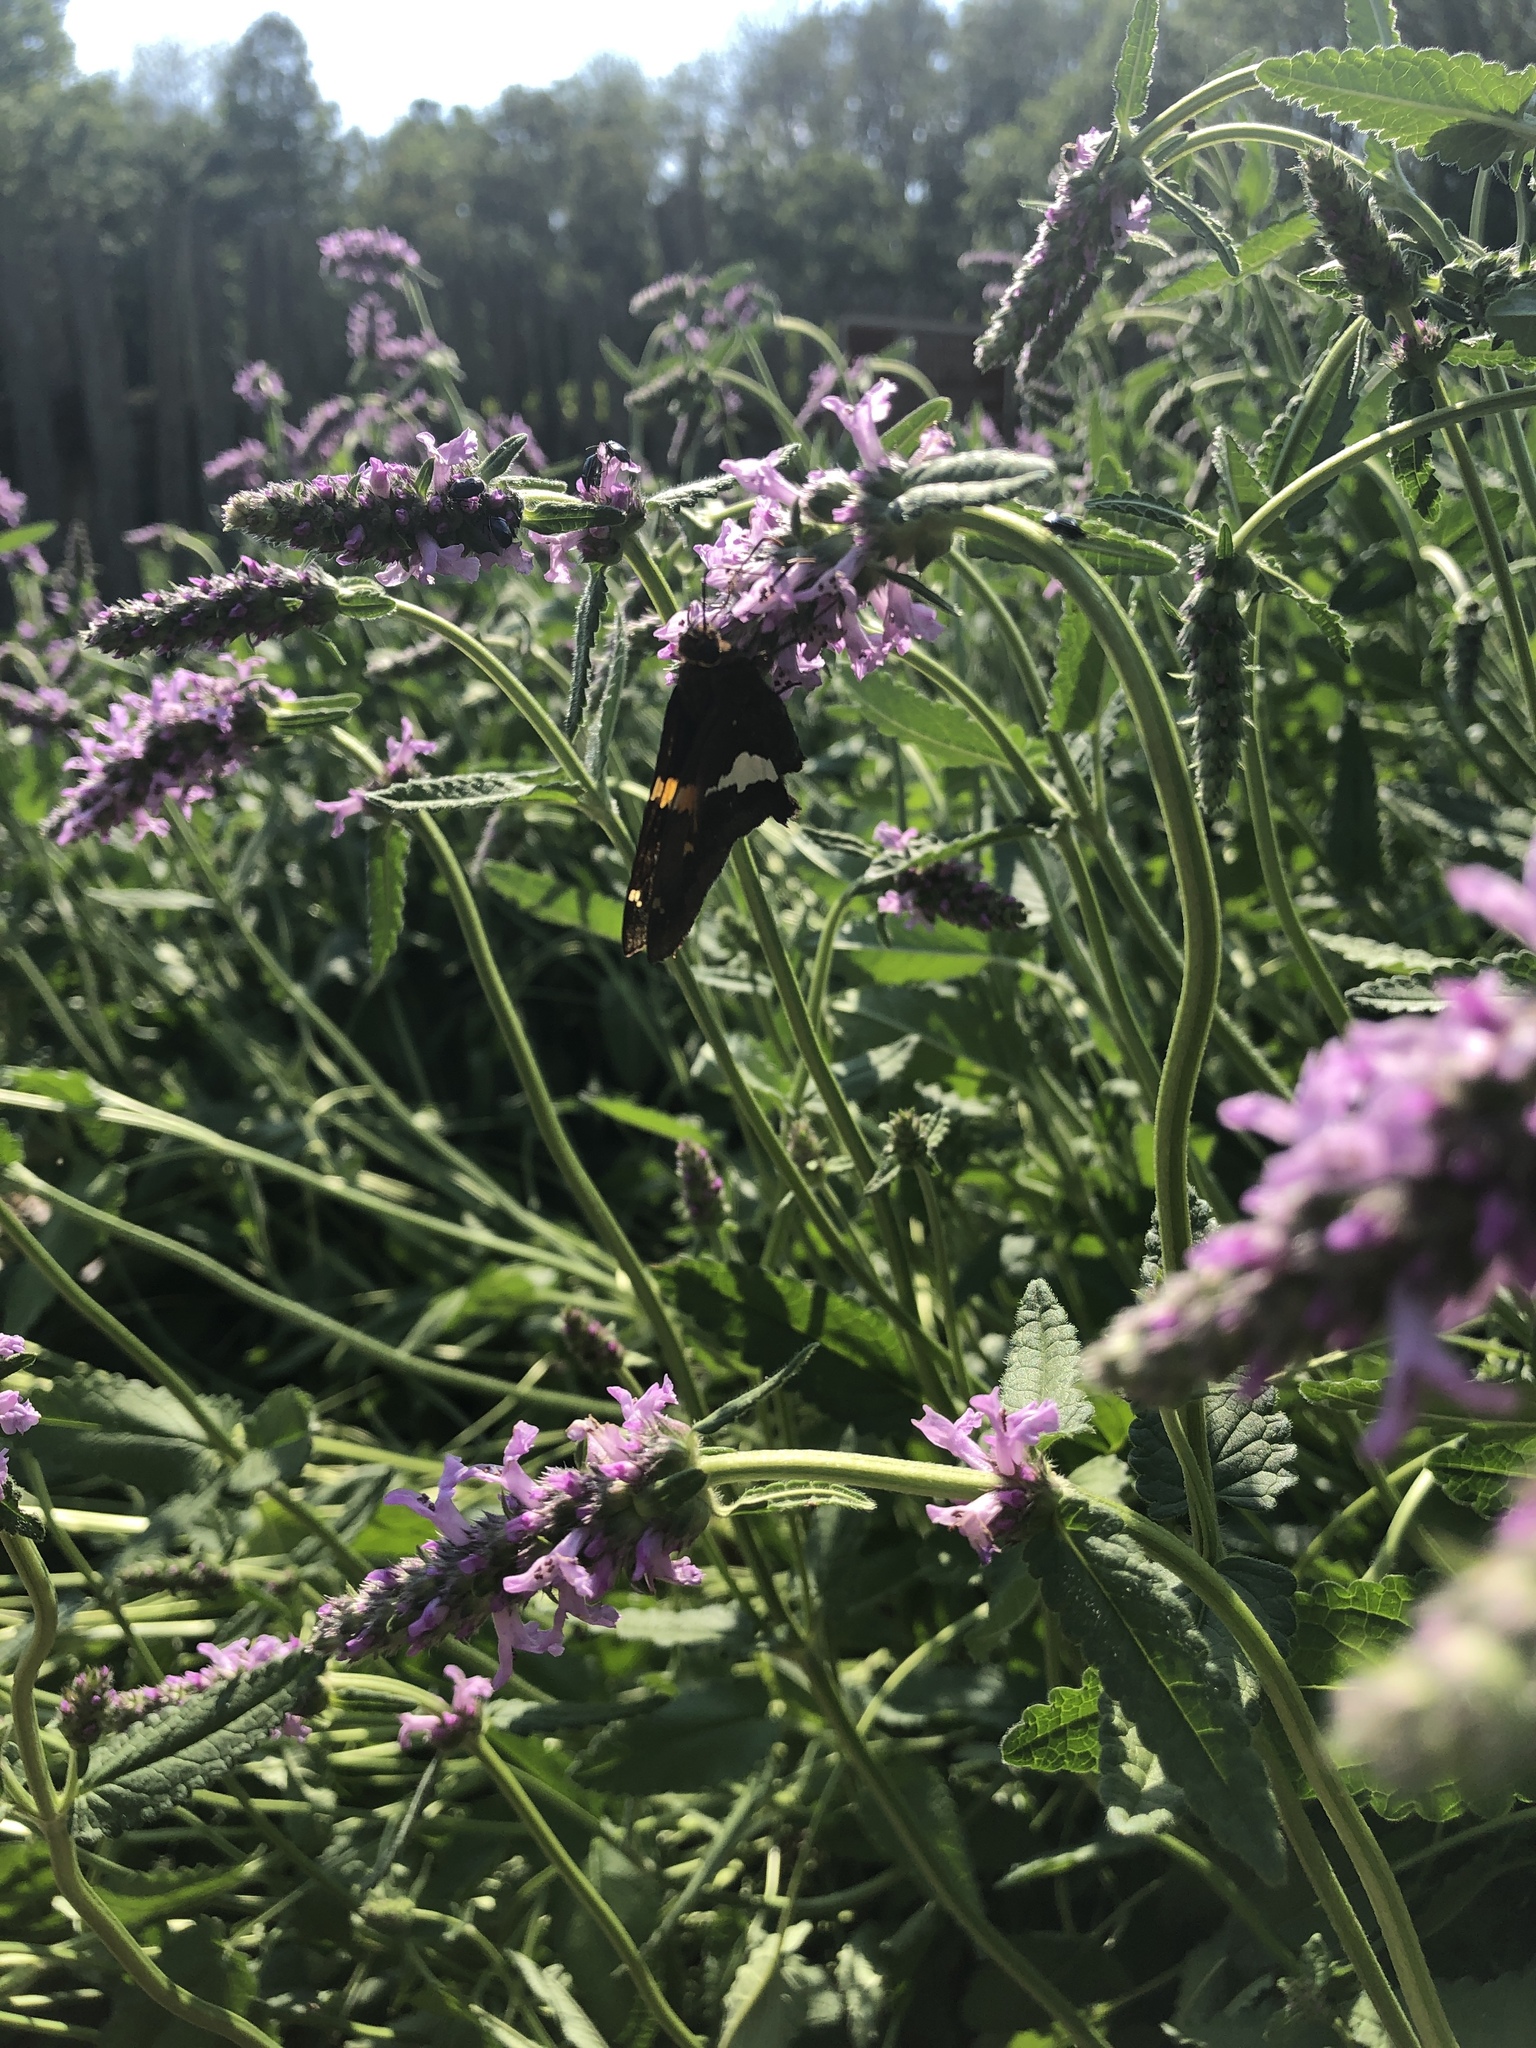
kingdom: Animalia
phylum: Arthropoda
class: Insecta
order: Lepidoptera
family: Hesperiidae
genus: Epargyreus
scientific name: Epargyreus clarus
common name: Silver-spotted skipper
